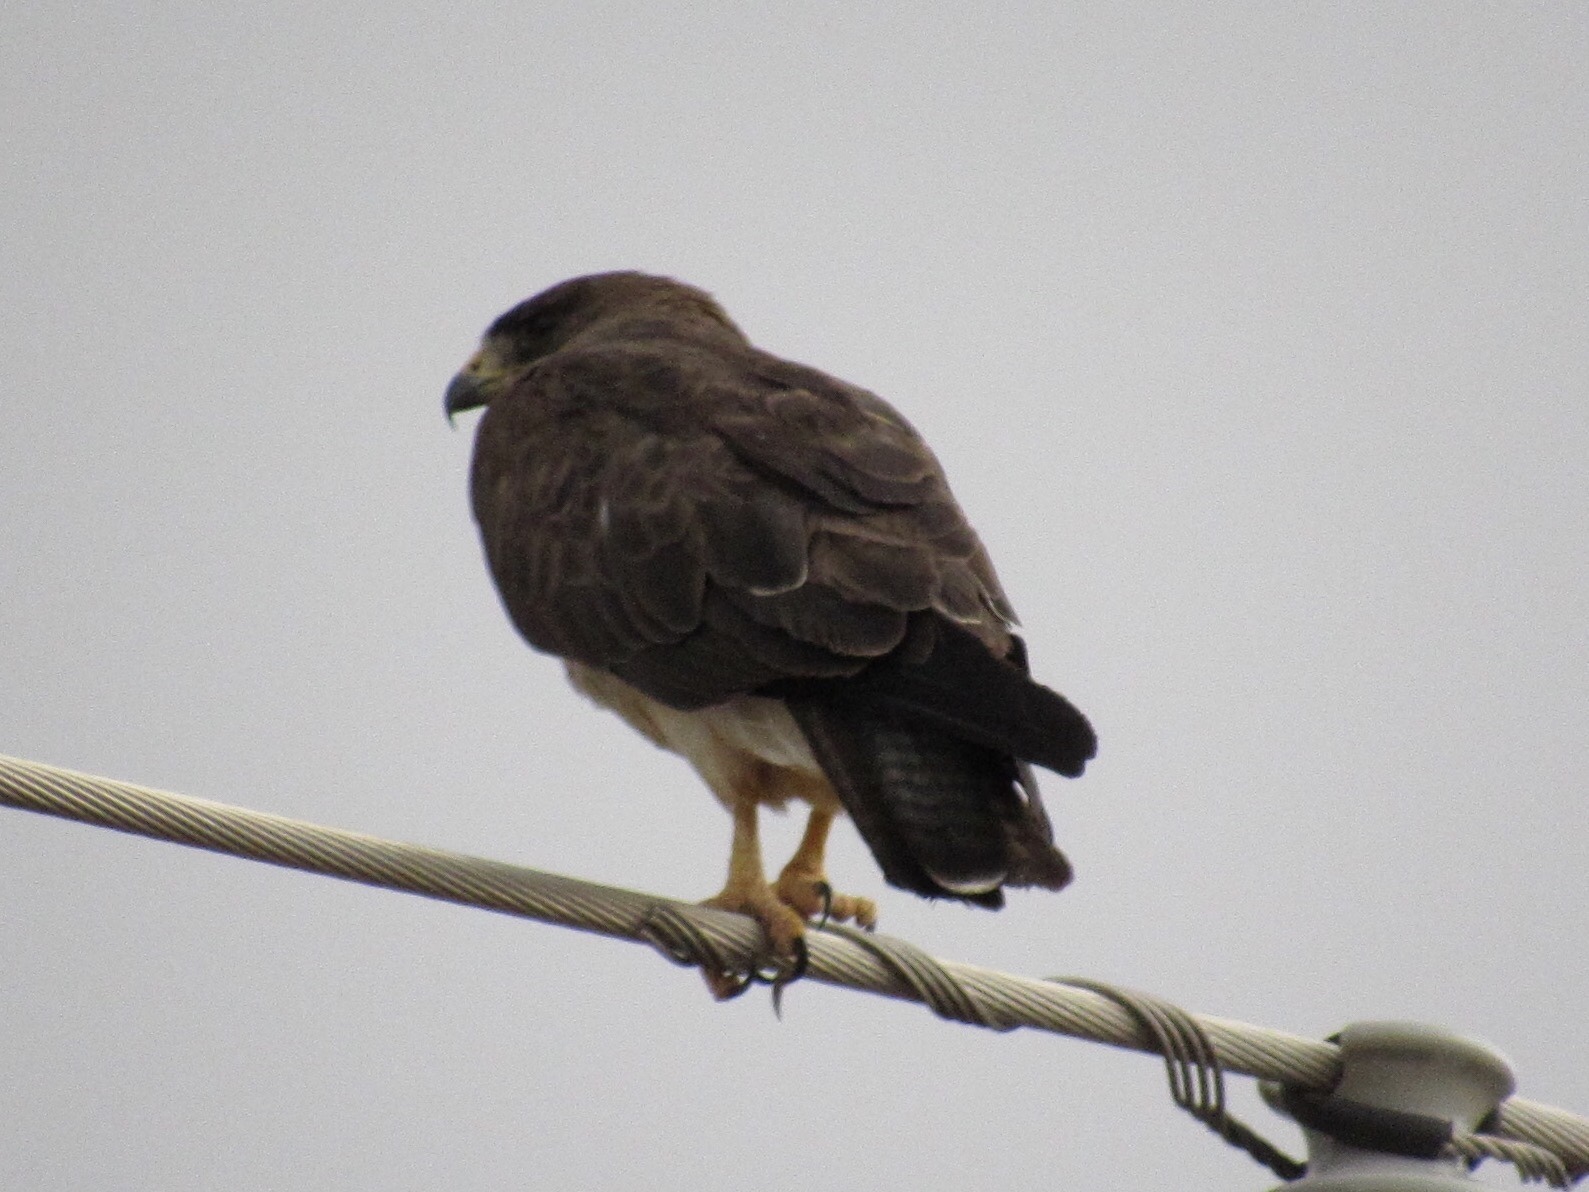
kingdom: Animalia
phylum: Chordata
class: Aves
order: Accipitriformes
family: Accipitridae
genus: Buteo
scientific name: Buteo swainsoni
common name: Swainson's hawk
